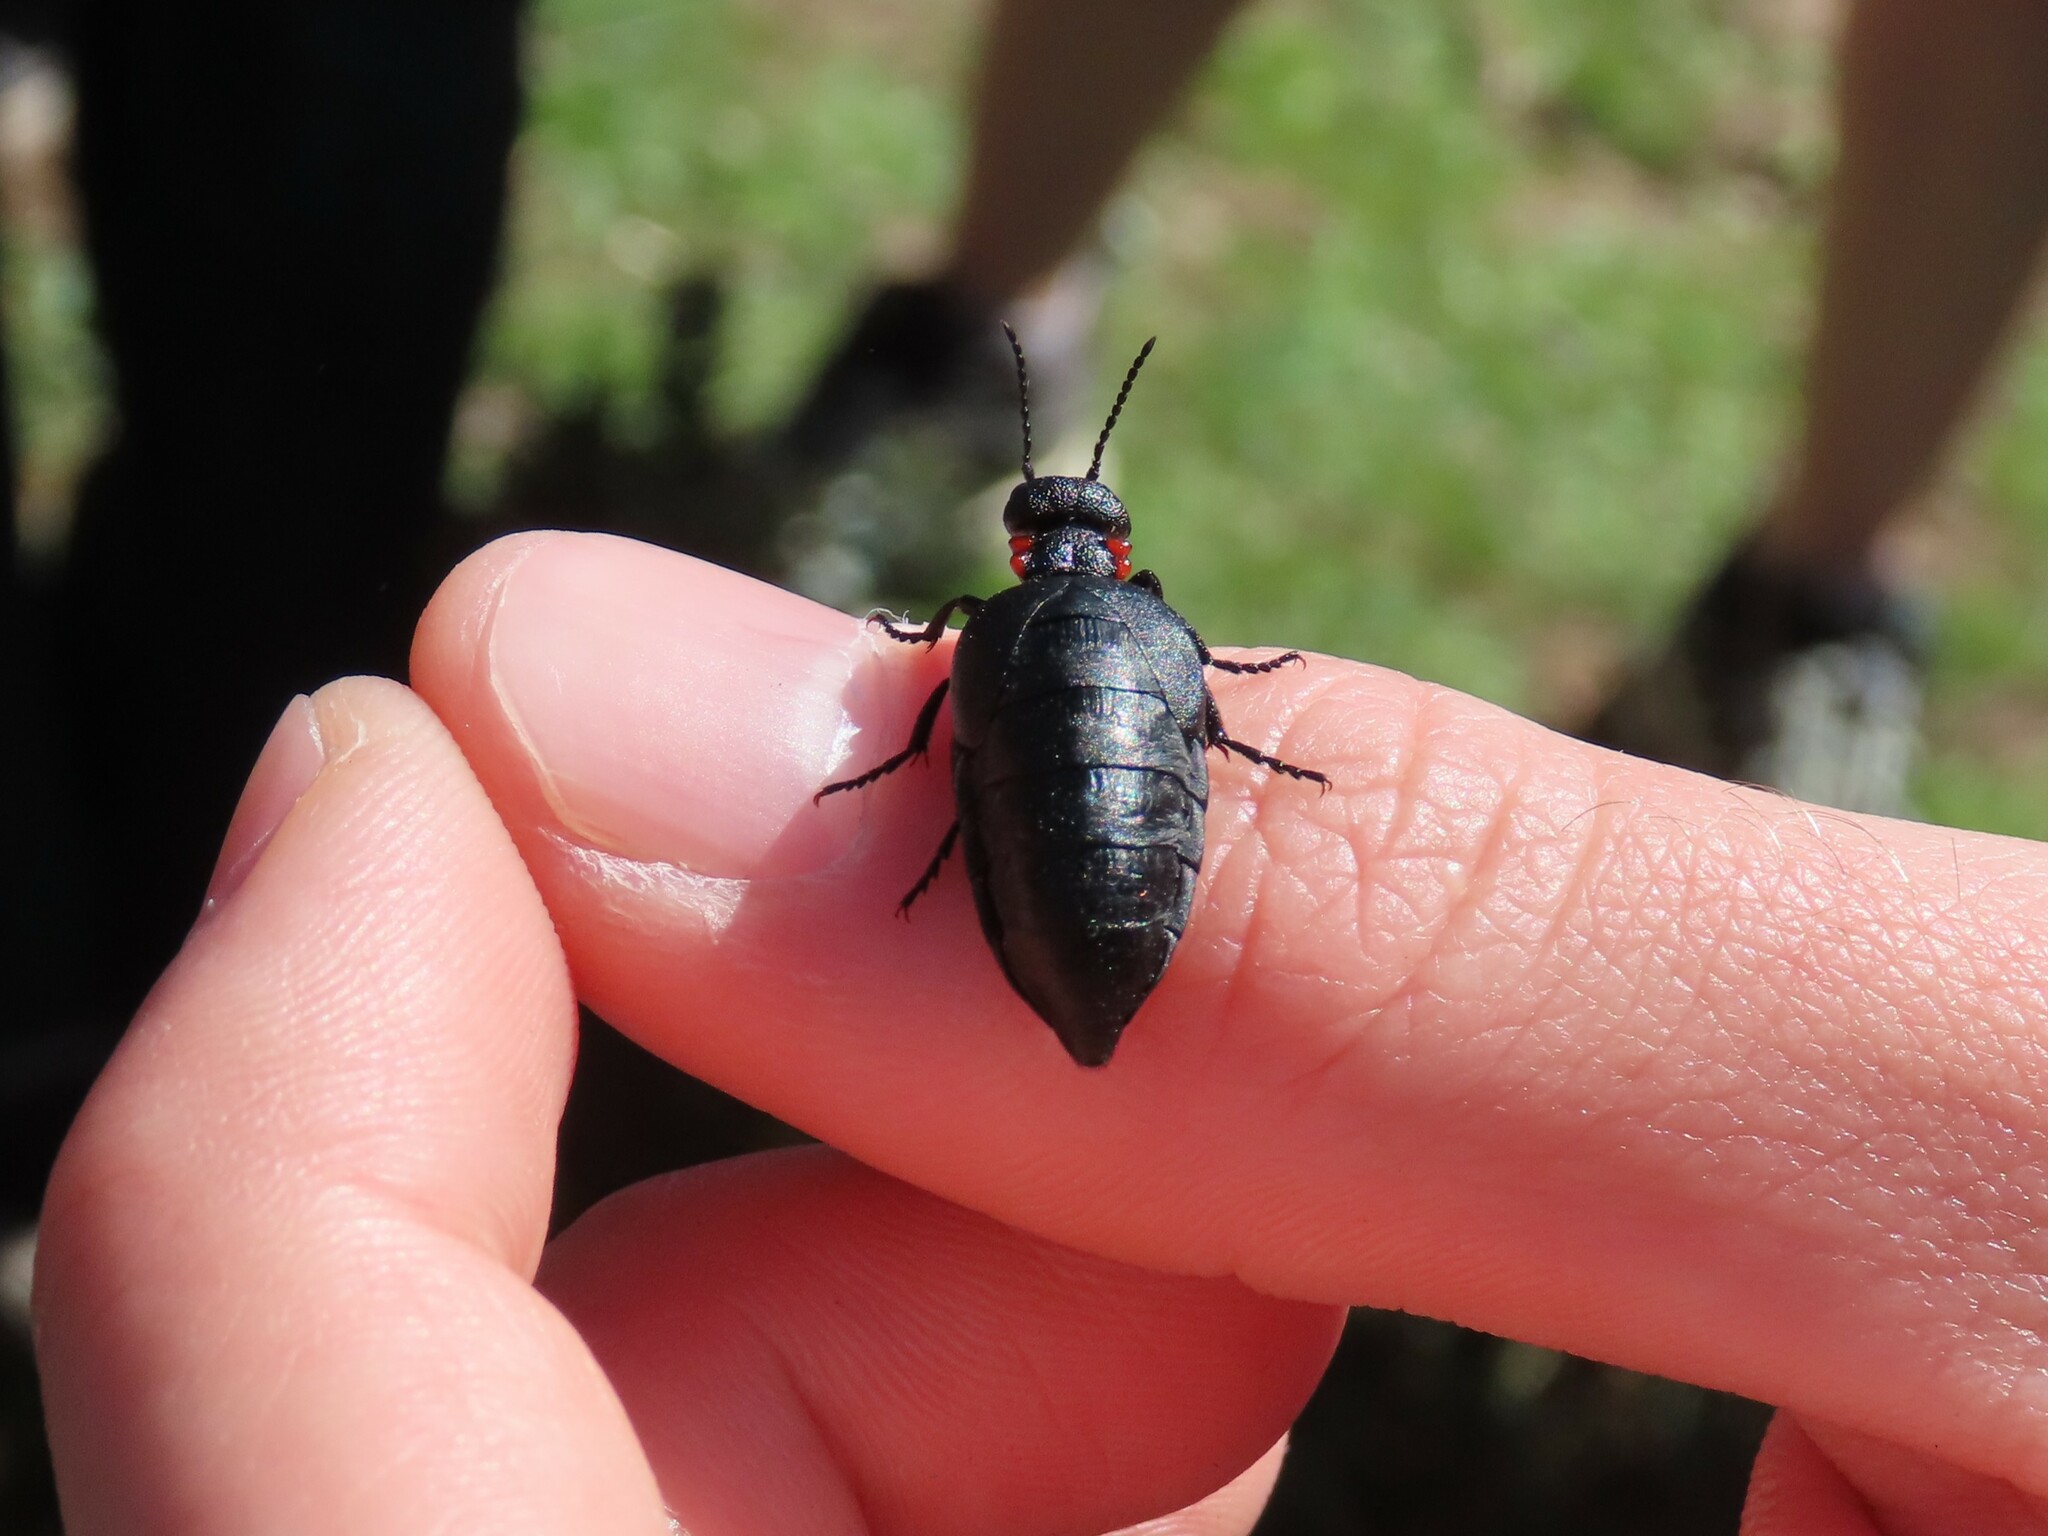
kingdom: Animalia
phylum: Arthropoda
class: Insecta
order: Coleoptera
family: Meloidae
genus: Physomeloe
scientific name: Physomeloe corallifer
